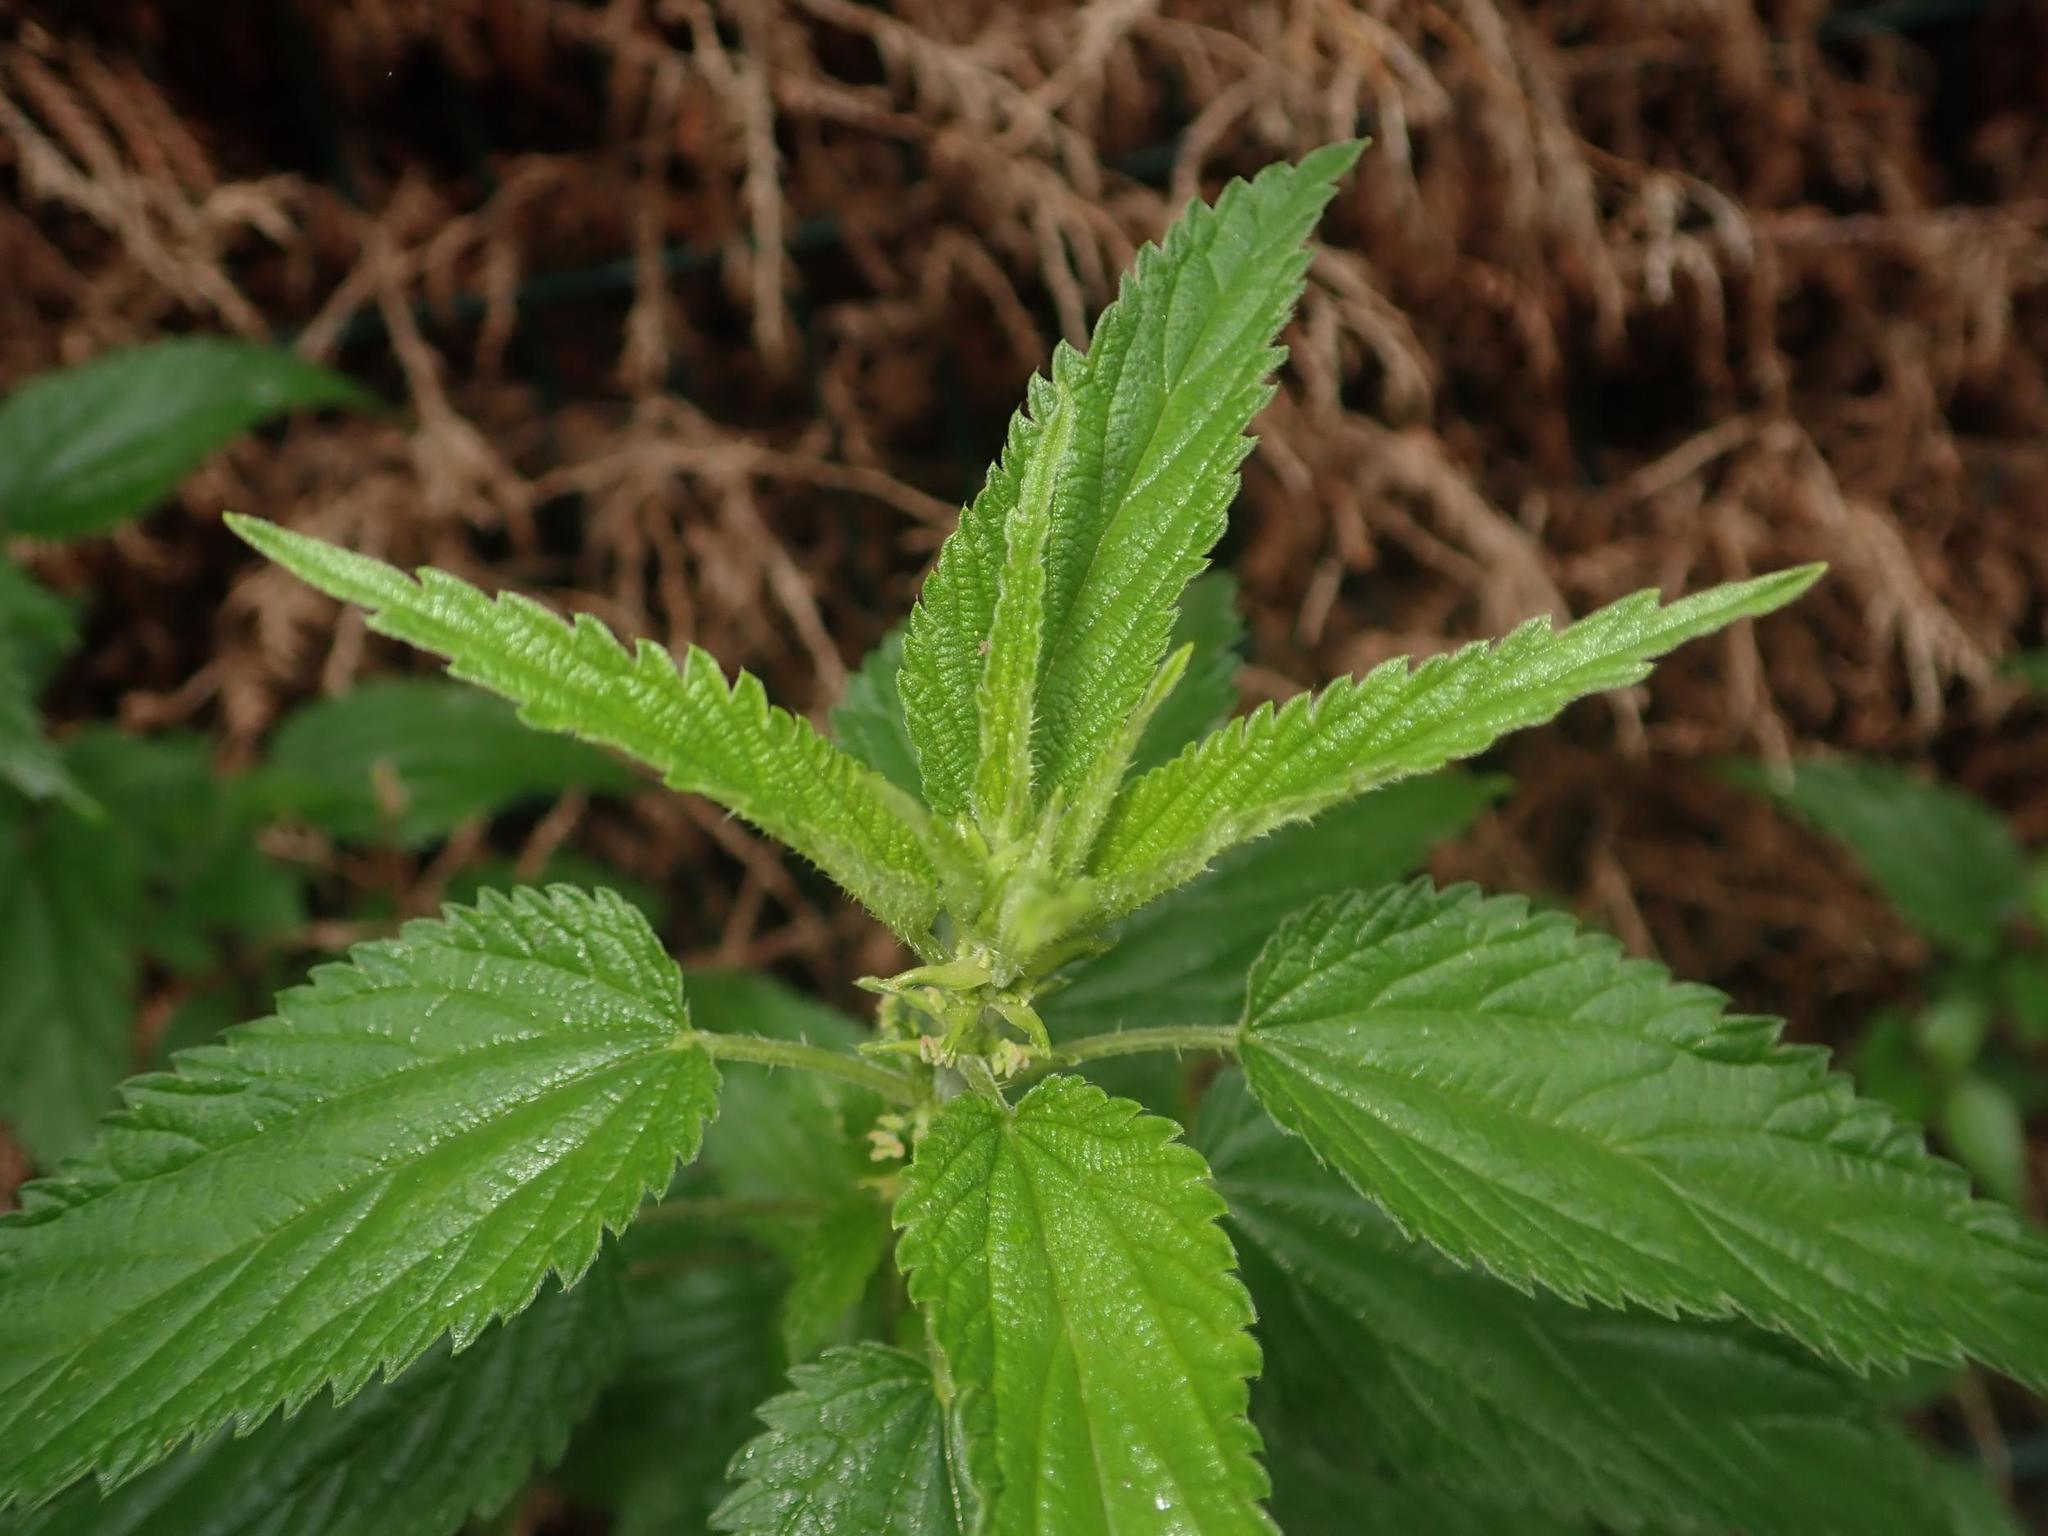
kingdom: Plantae
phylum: Tracheophyta
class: Magnoliopsida
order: Rosales
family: Urticaceae
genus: Urtica
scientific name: Urtica dioica
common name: Common nettle
